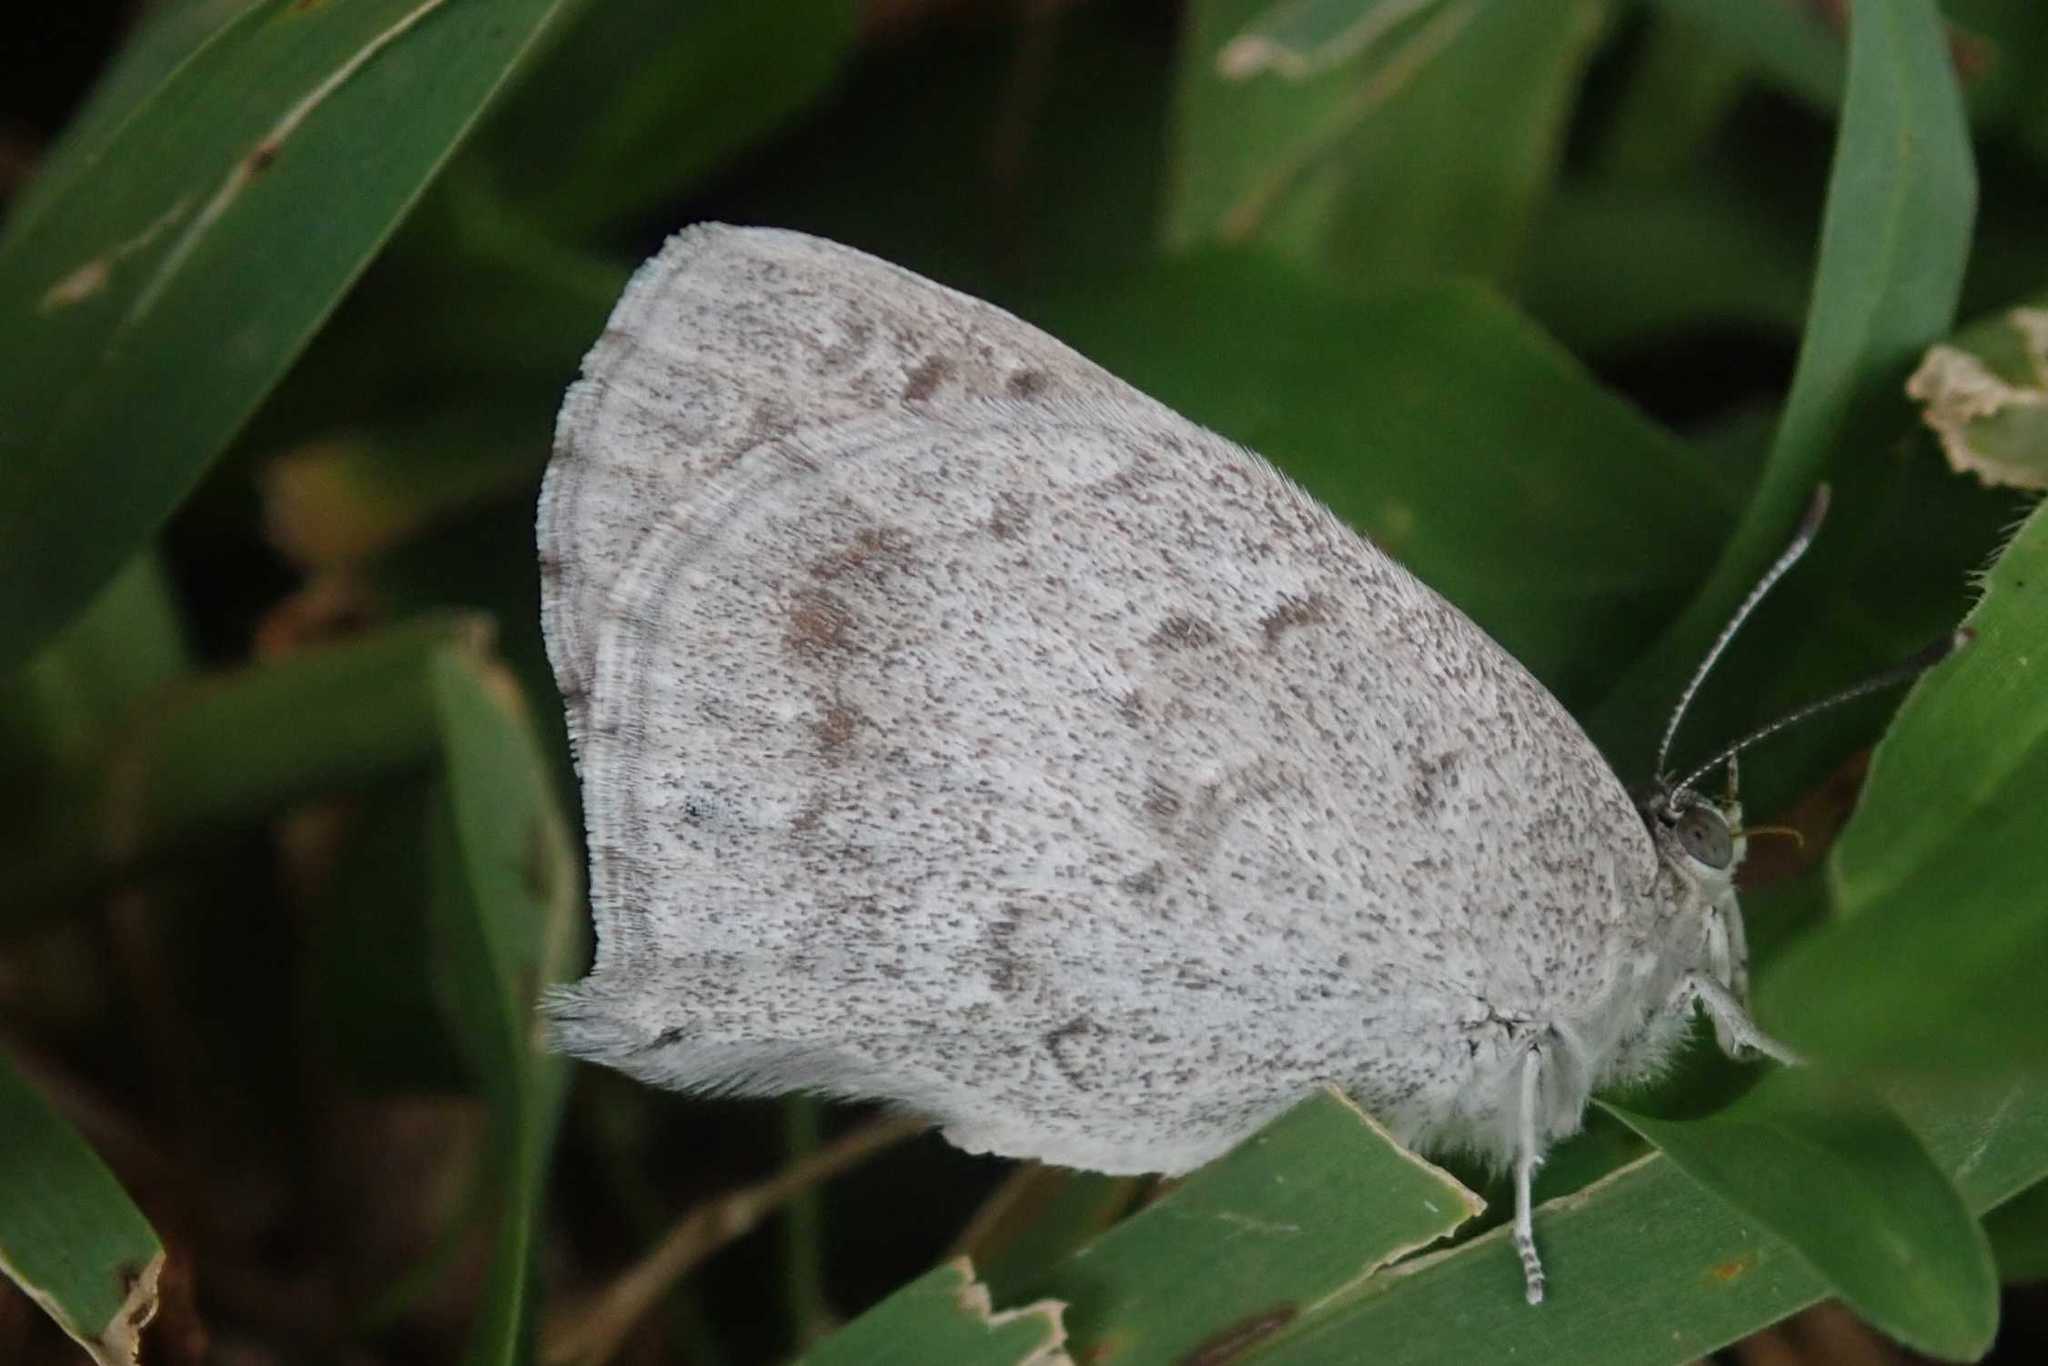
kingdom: Animalia
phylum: Arthropoda
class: Insecta
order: Lepidoptera
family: Lycaenidae
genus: Leptomyrina
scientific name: Leptomyrina gorgias
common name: Common black-eye
